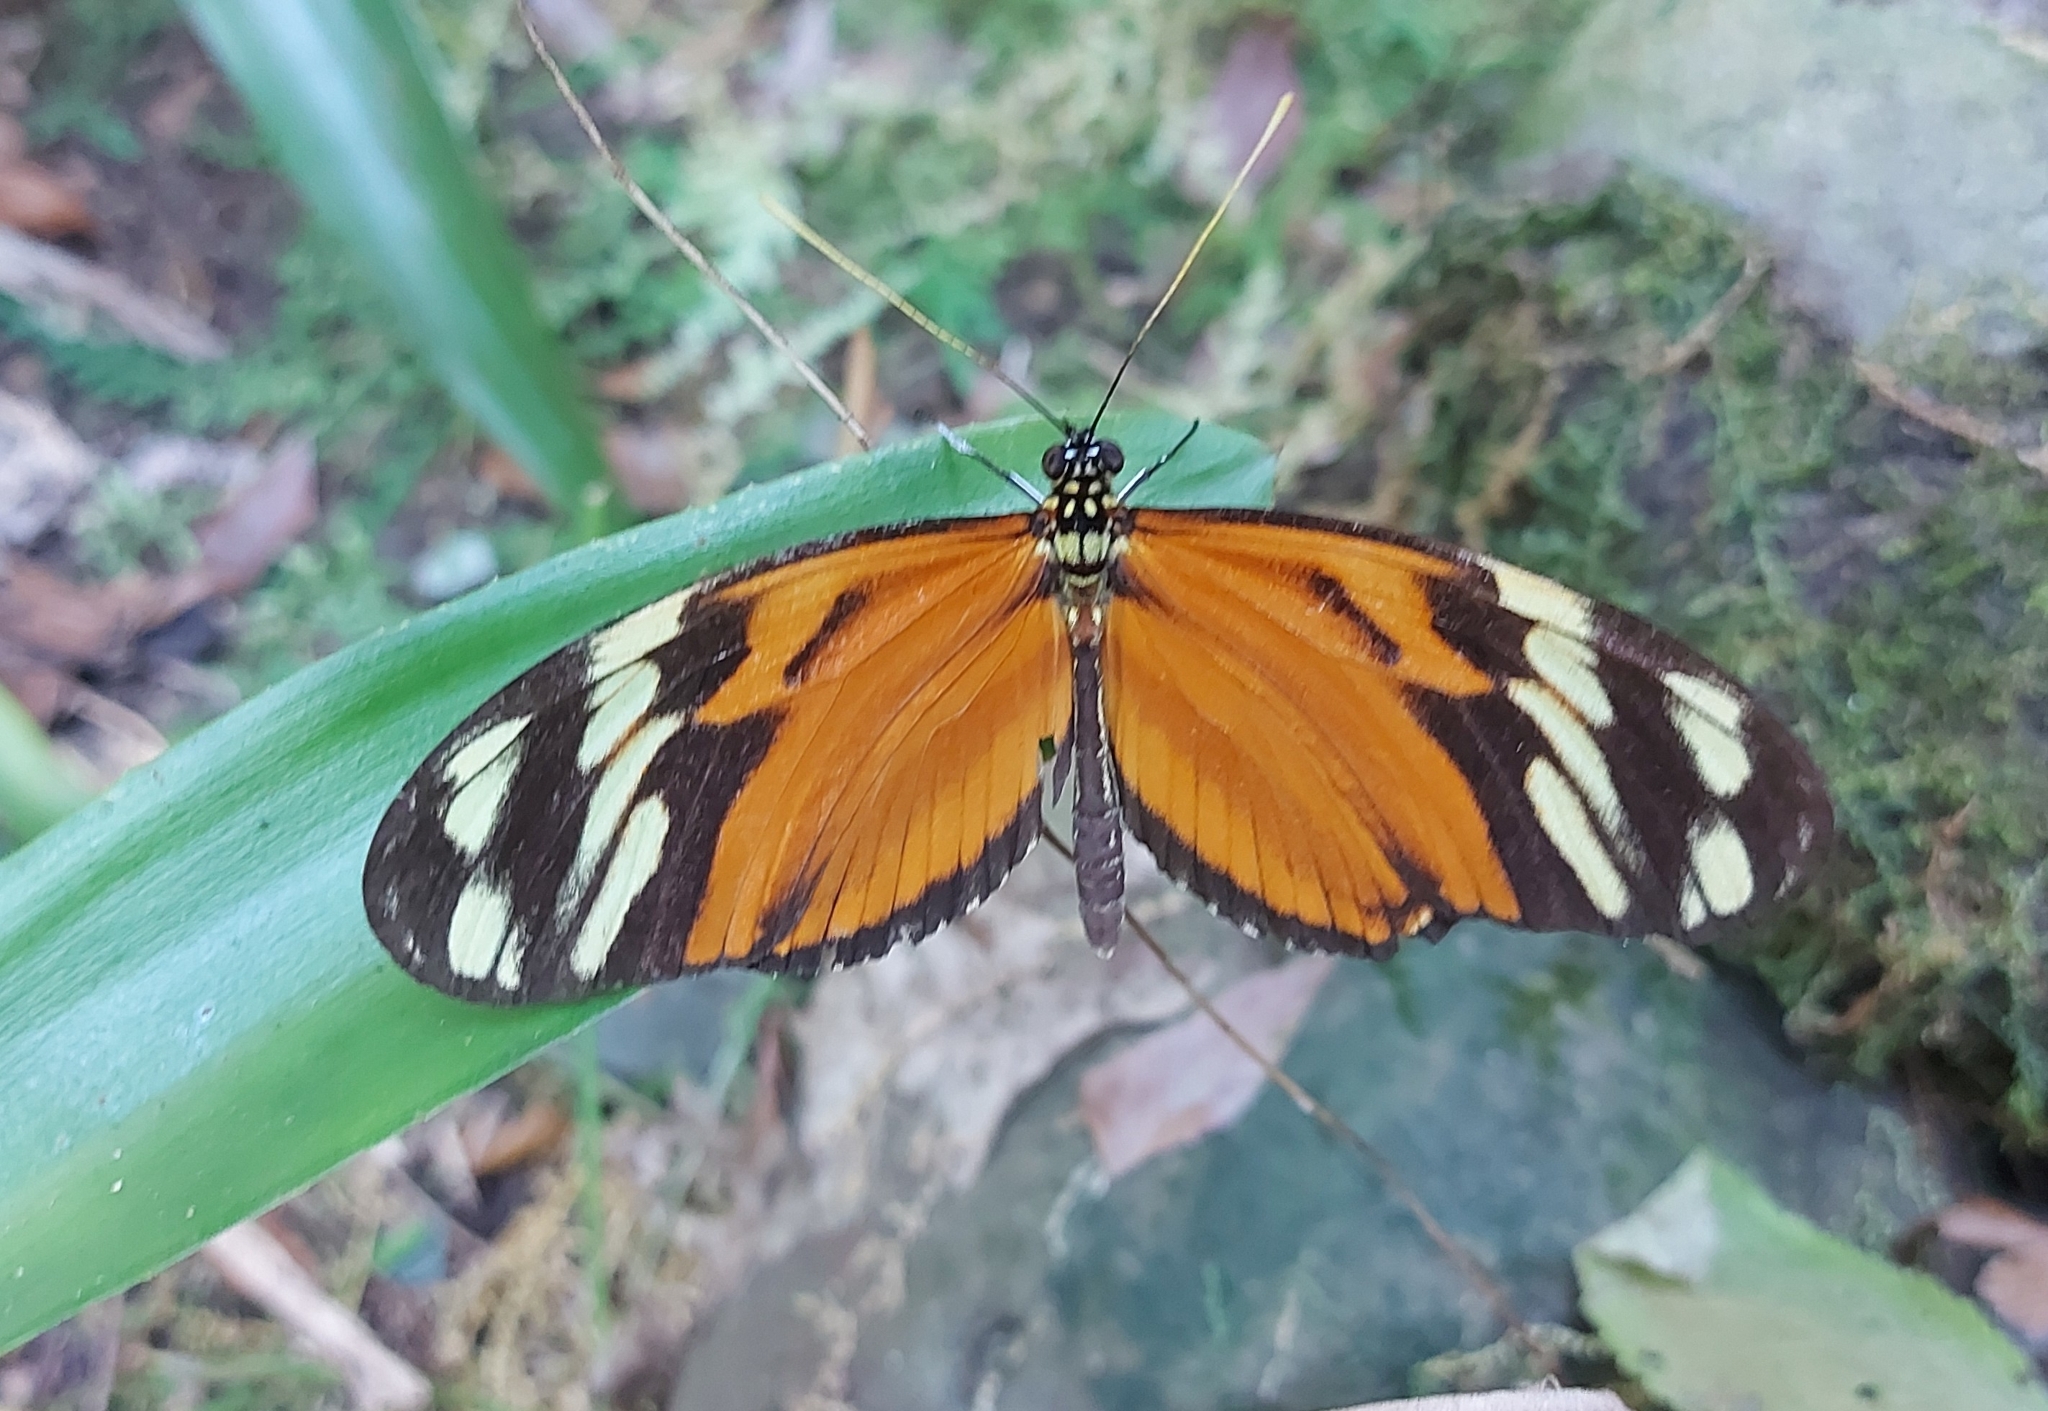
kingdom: Animalia
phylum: Arthropoda
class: Insecta
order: Lepidoptera
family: Nymphalidae
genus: Heliconius
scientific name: Heliconius ismenius
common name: Ismenius tiger
